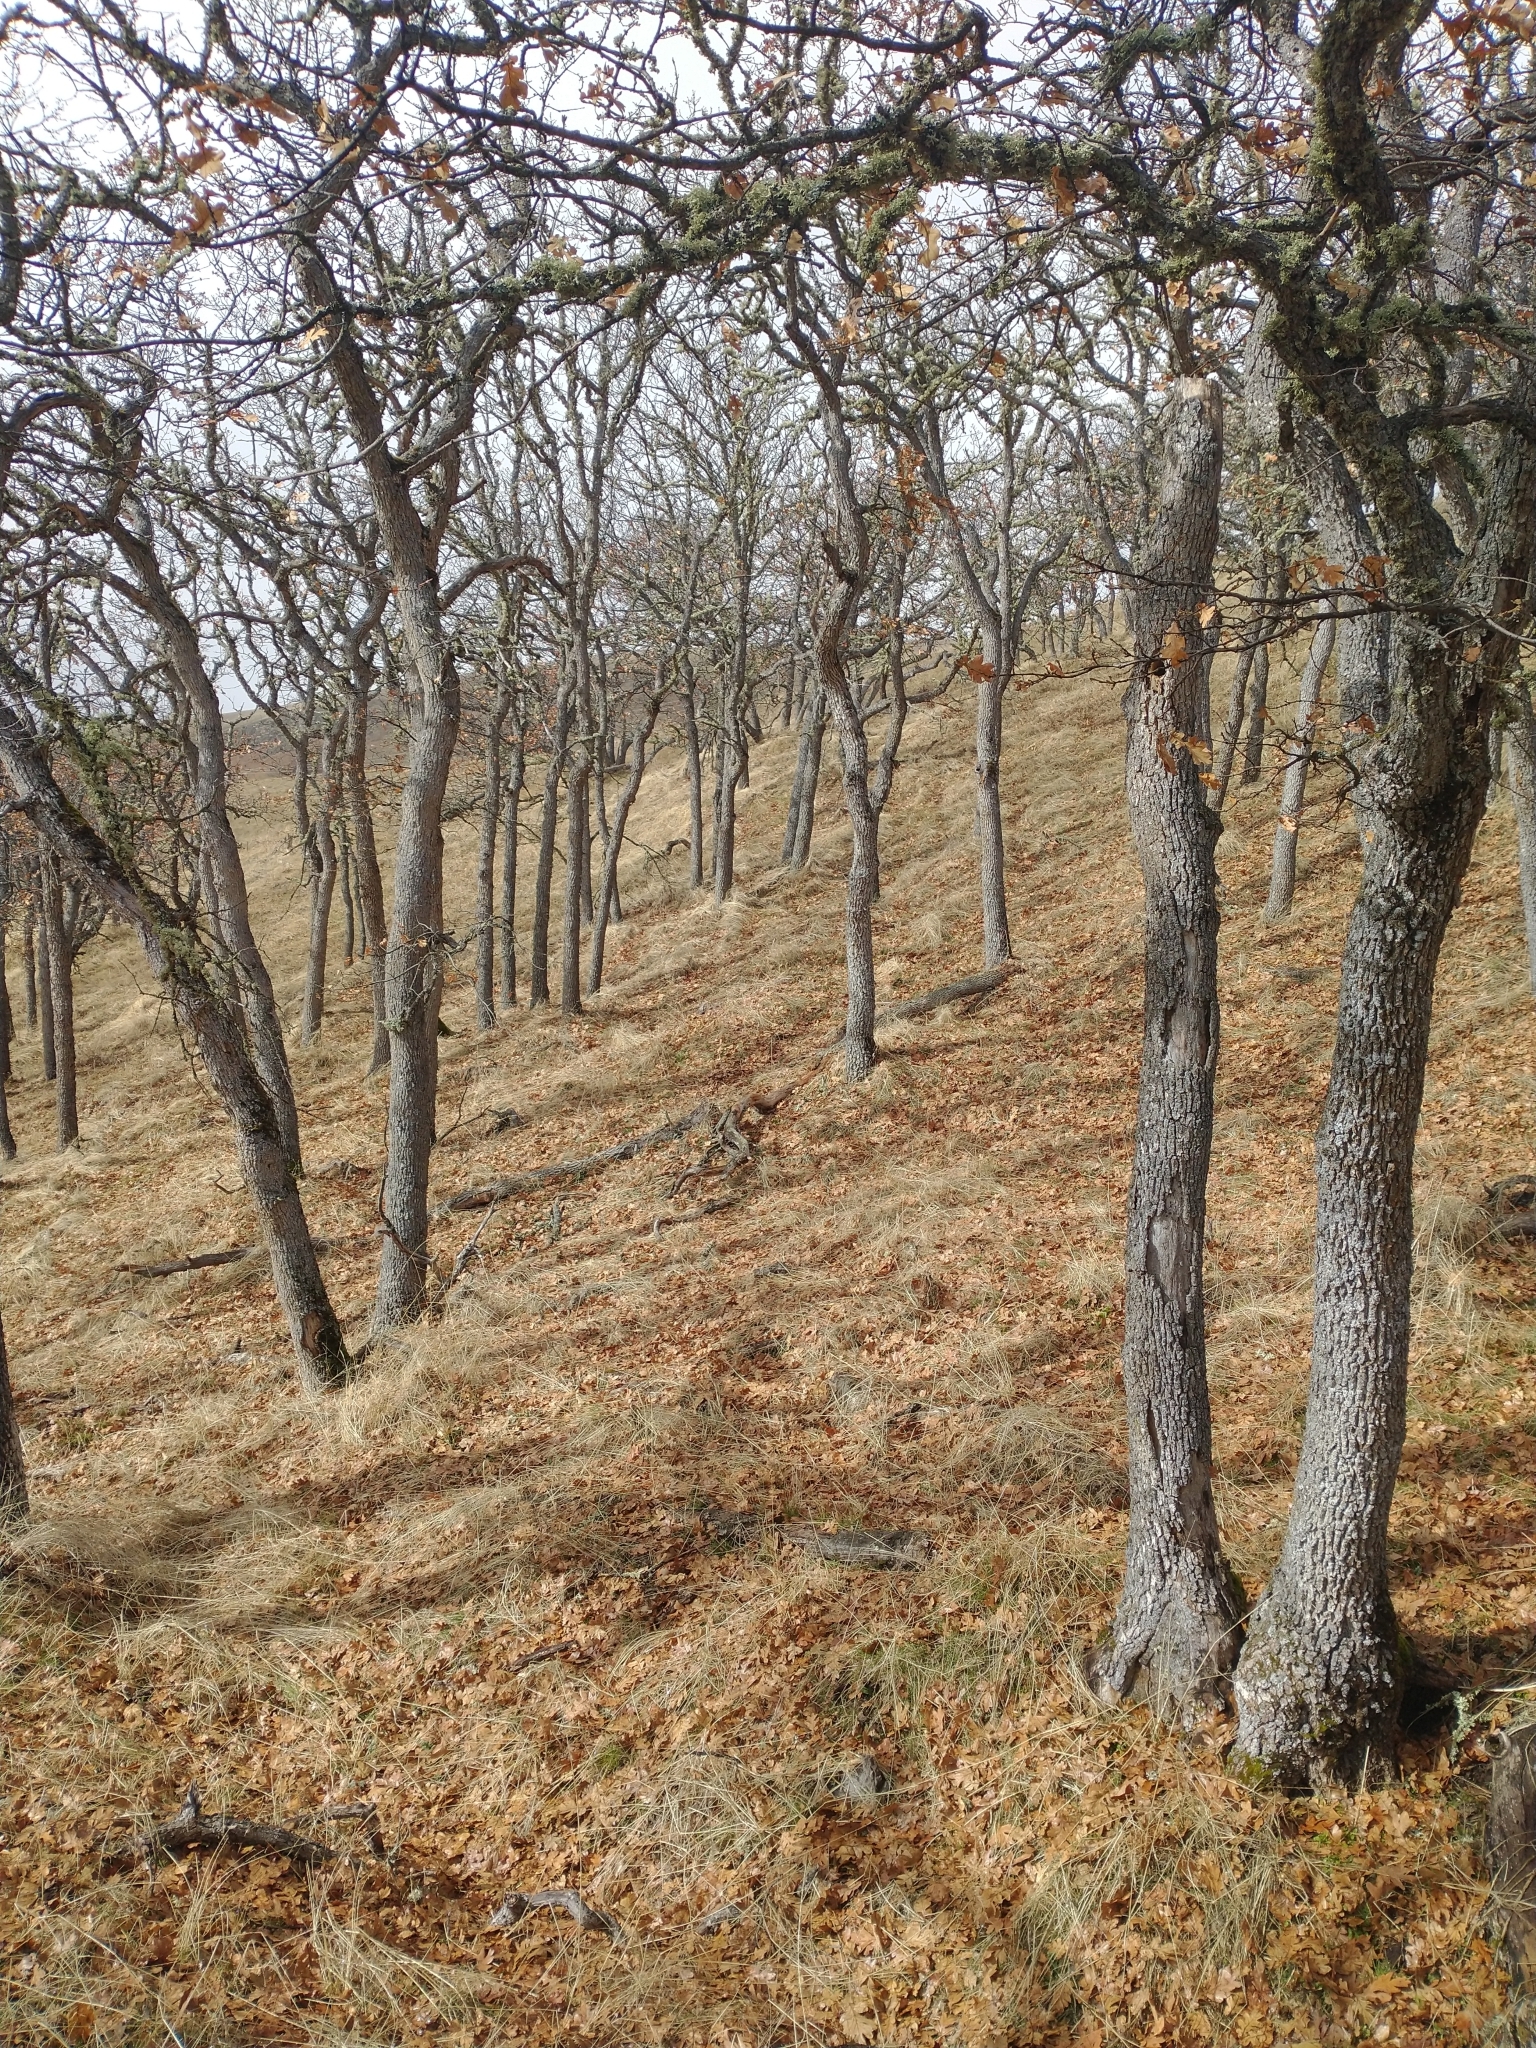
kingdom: Plantae
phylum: Tracheophyta
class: Magnoliopsida
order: Fagales
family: Fagaceae
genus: Quercus
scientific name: Quercus garryana
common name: Garry oak
